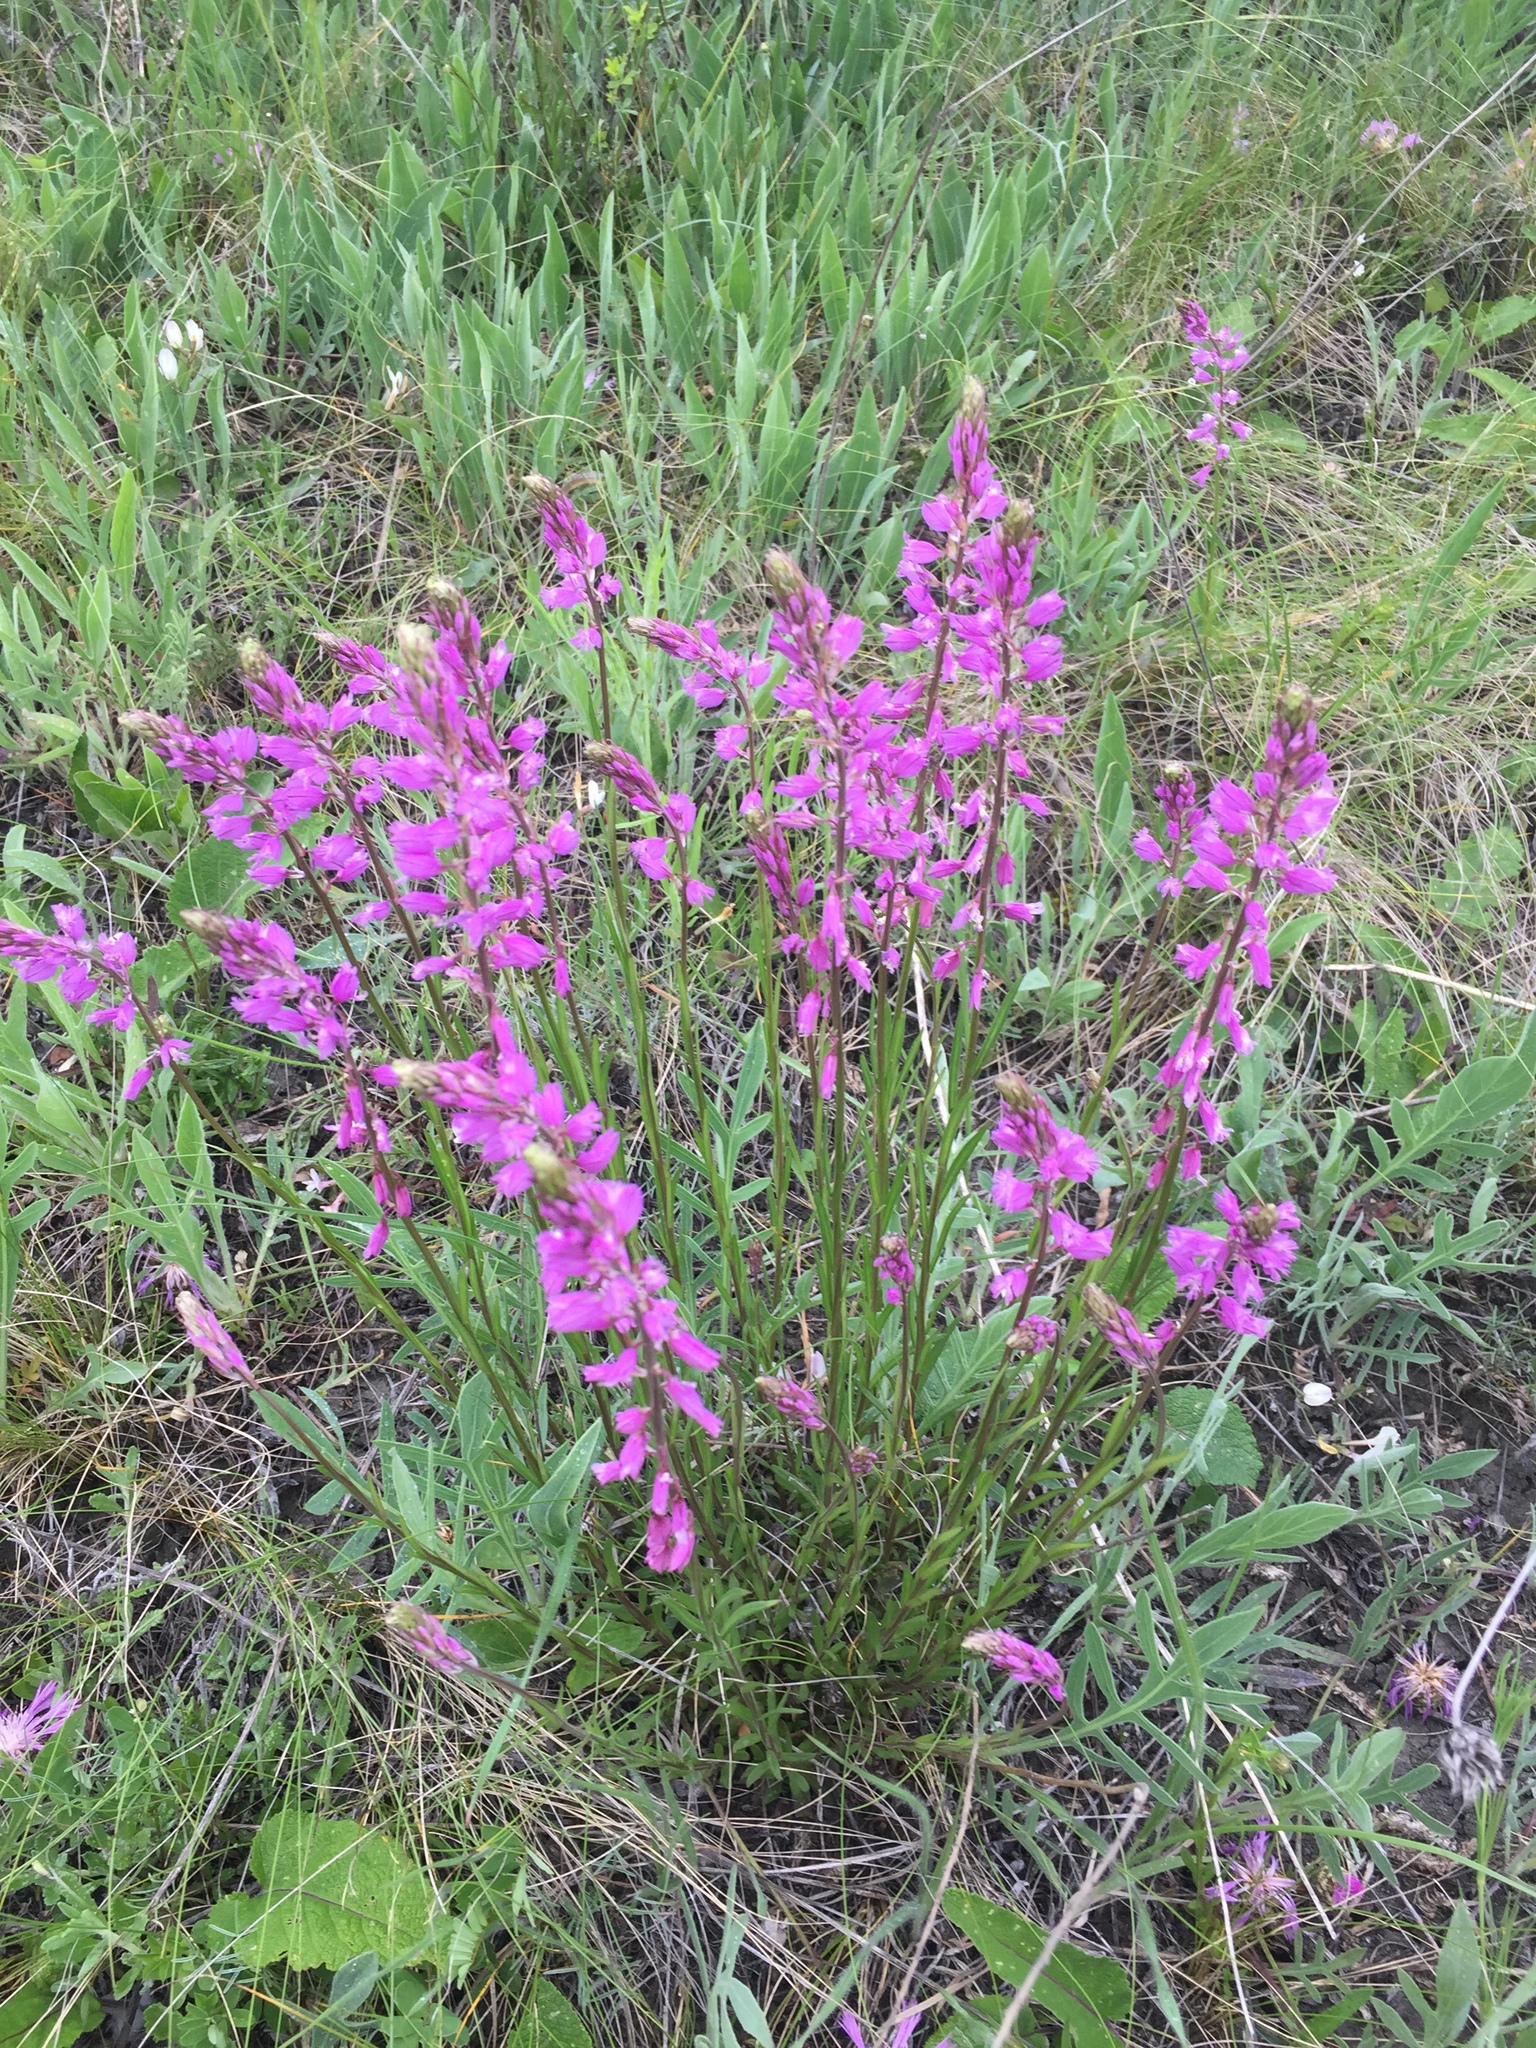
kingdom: Plantae
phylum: Tracheophyta
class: Magnoliopsida
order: Fabales
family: Polygalaceae
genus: Polygala
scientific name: Polygala nicaeensis
